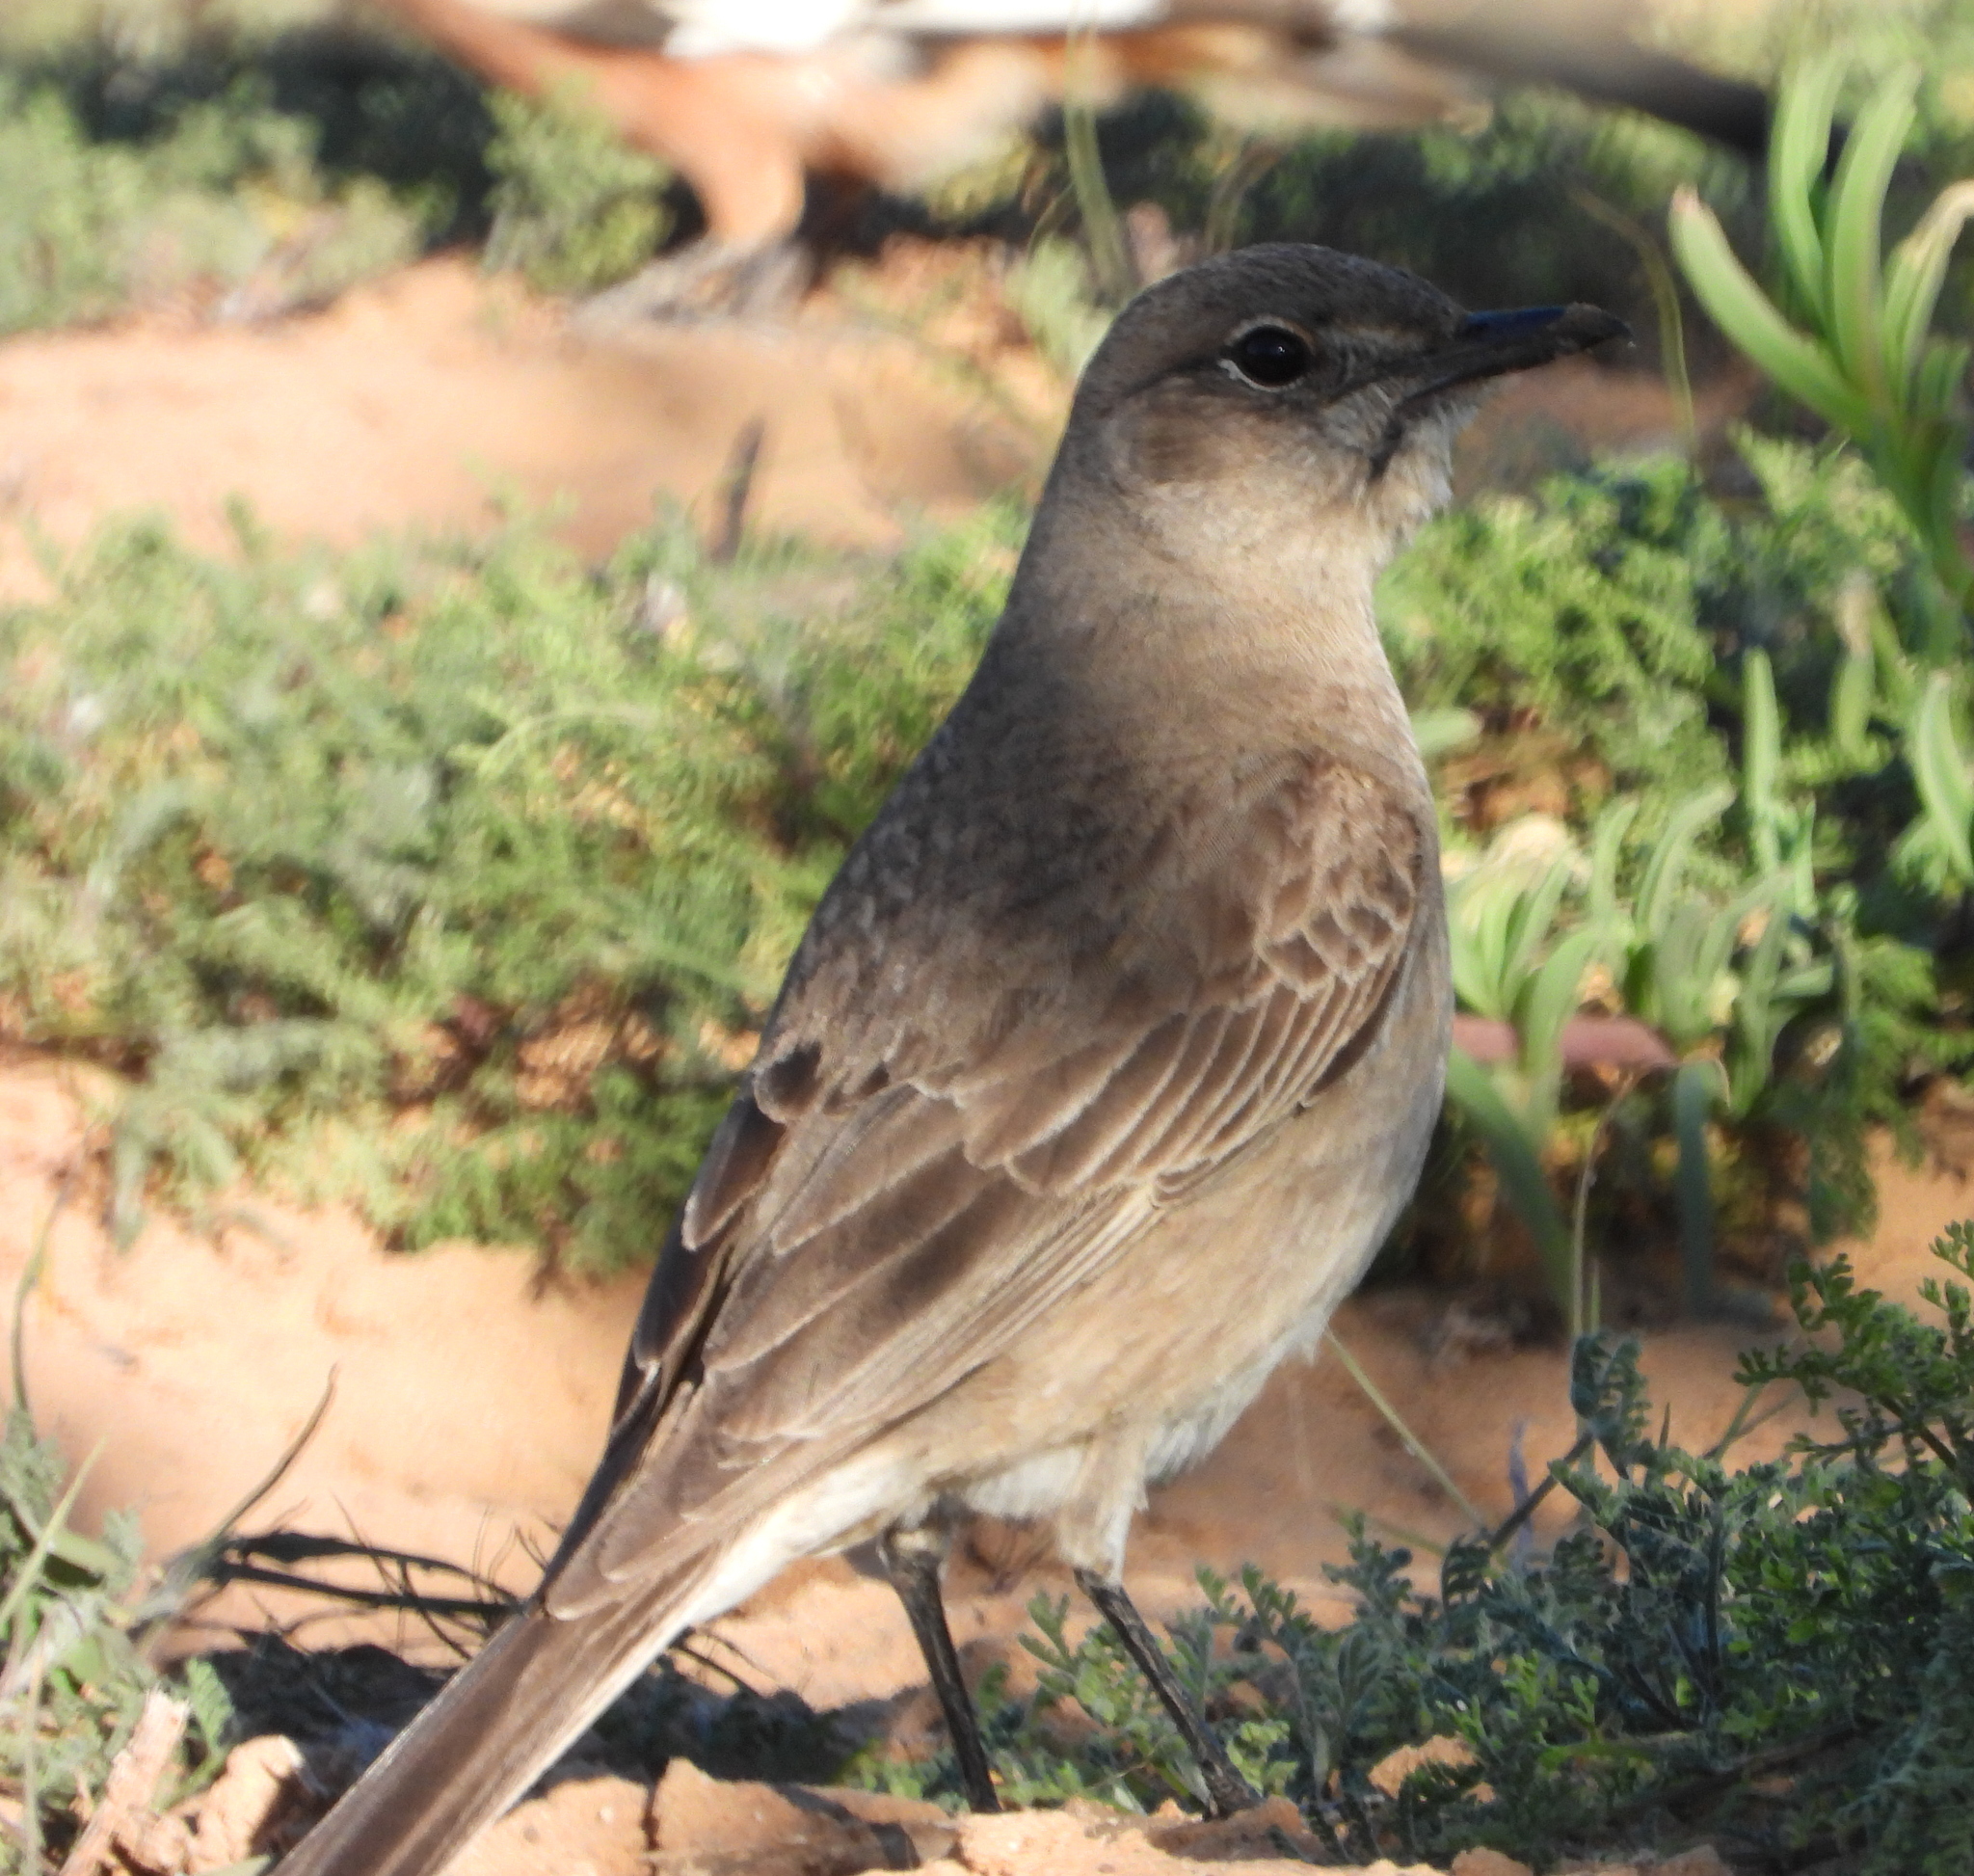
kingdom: Animalia
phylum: Chordata
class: Aves
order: Passeriformes
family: Muscicapidae
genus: Bradornis
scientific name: Bradornis infuscatus
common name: Chat flycatcher
